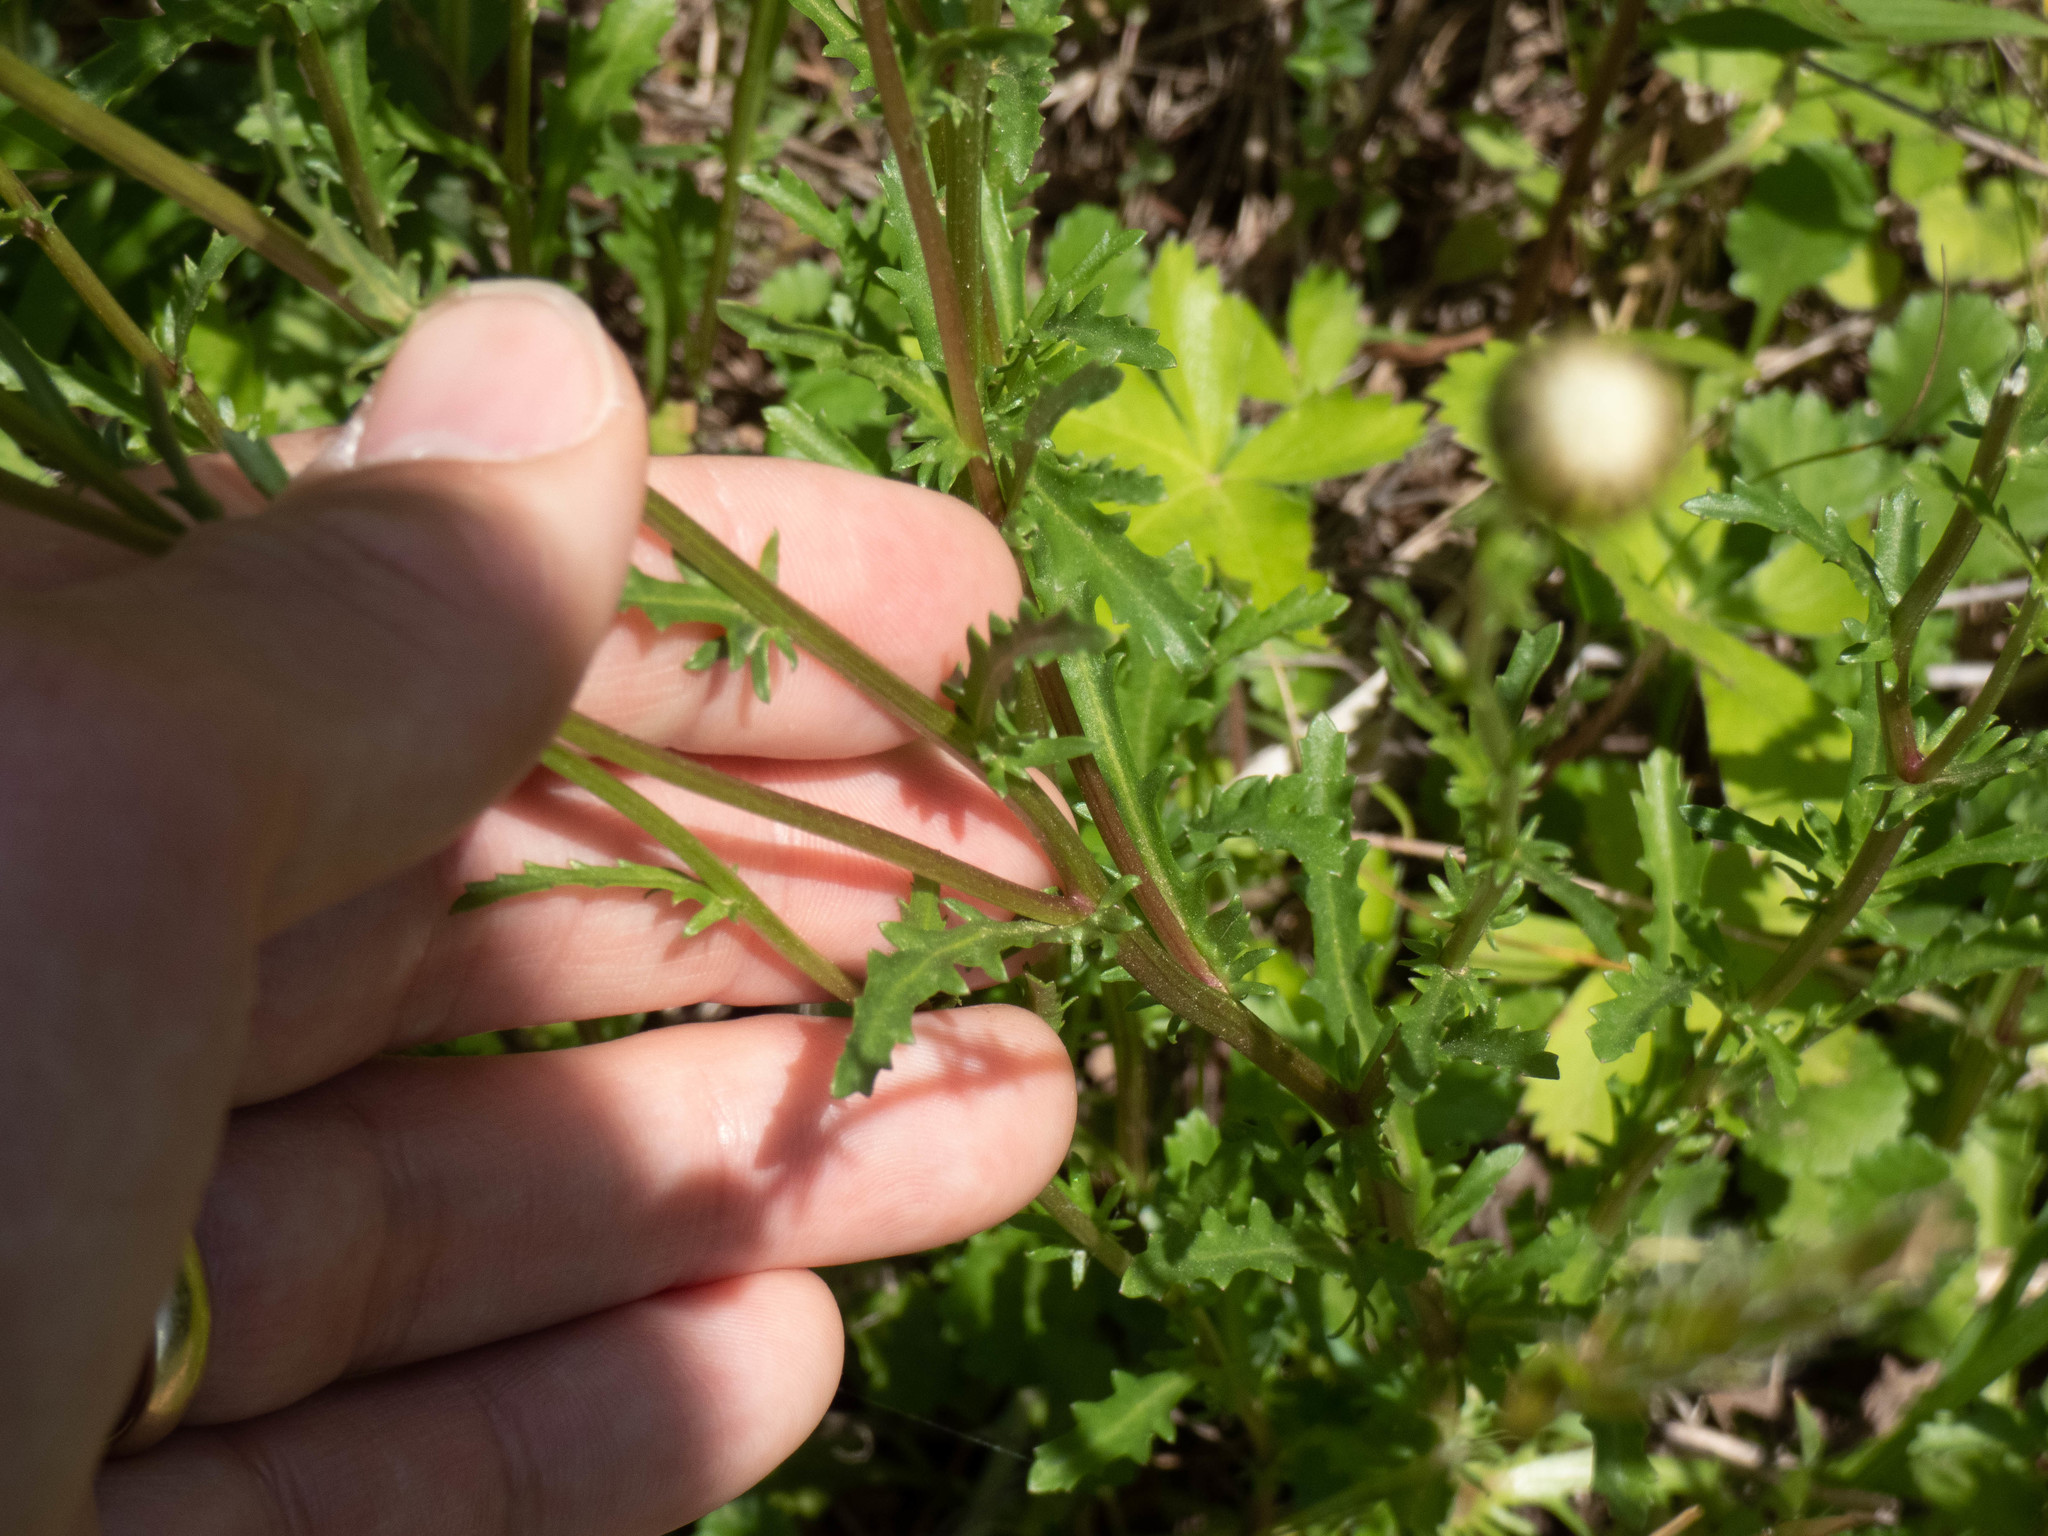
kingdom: Plantae
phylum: Tracheophyta
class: Magnoliopsida
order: Asterales
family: Asteraceae
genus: Leucanthemum
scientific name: Leucanthemum vulgare
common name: Oxeye daisy
